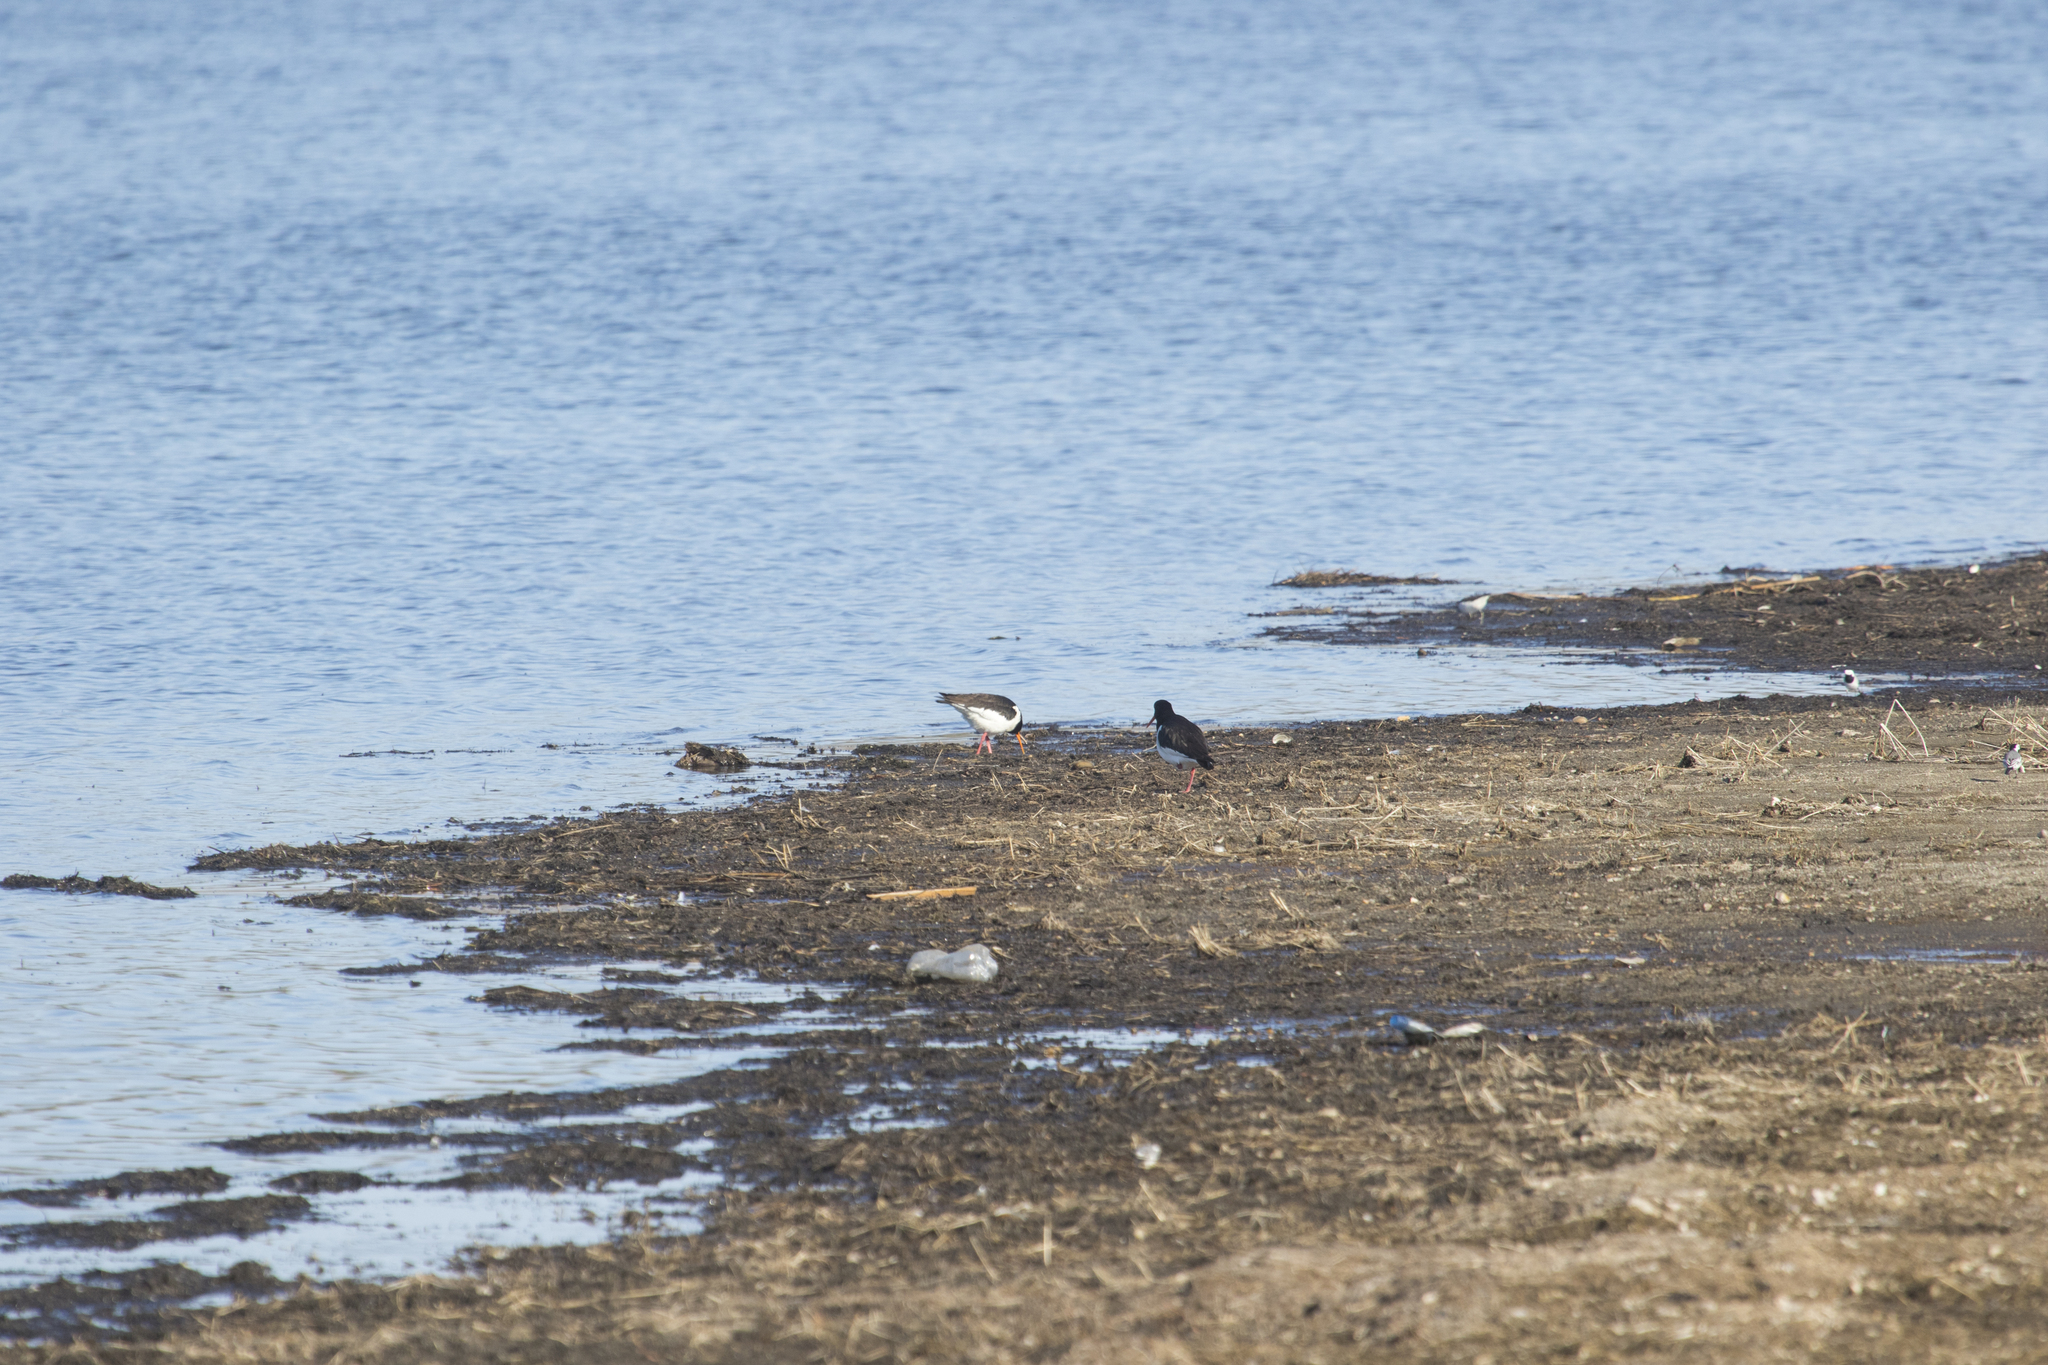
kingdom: Animalia
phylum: Chordata
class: Aves
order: Charadriiformes
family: Haematopodidae
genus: Haematopus
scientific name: Haematopus ostralegus
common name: Eurasian oystercatcher
